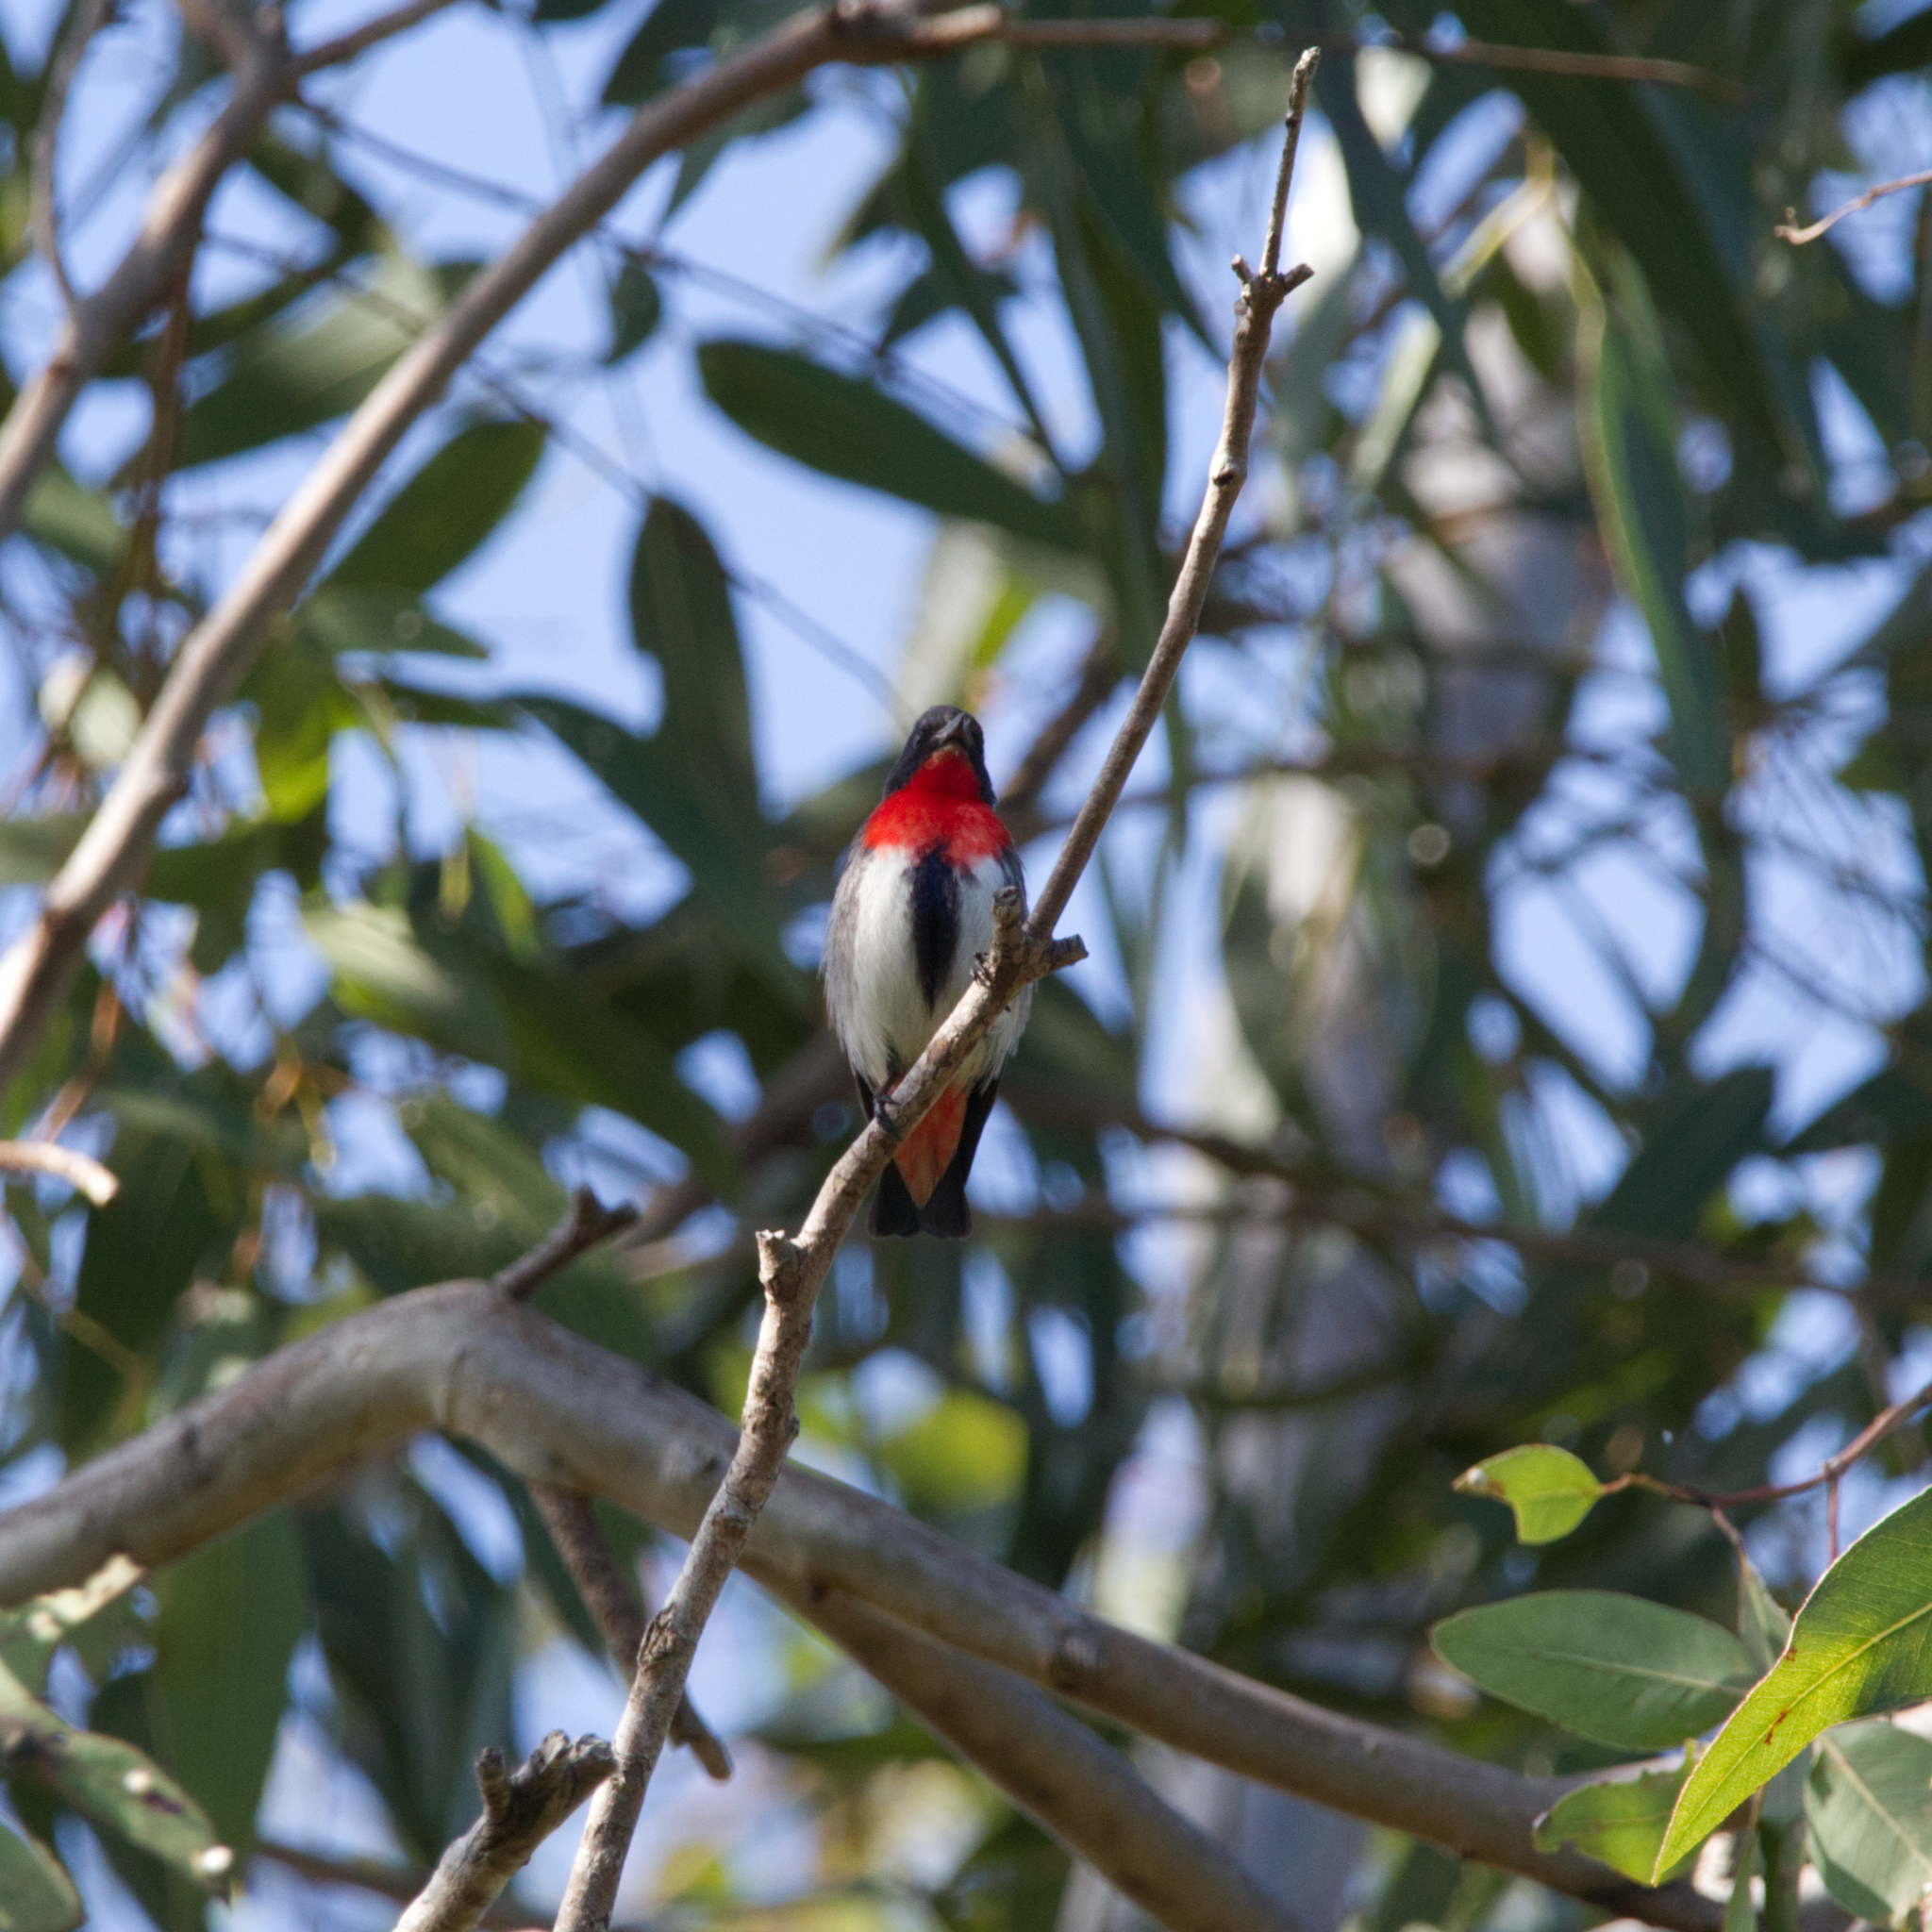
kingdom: Animalia
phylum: Chordata
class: Aves
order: Passeriformes
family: Dicaeidae
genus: Dicaeum
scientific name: Dicaeum hirundinaceum
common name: Mistletoebird
